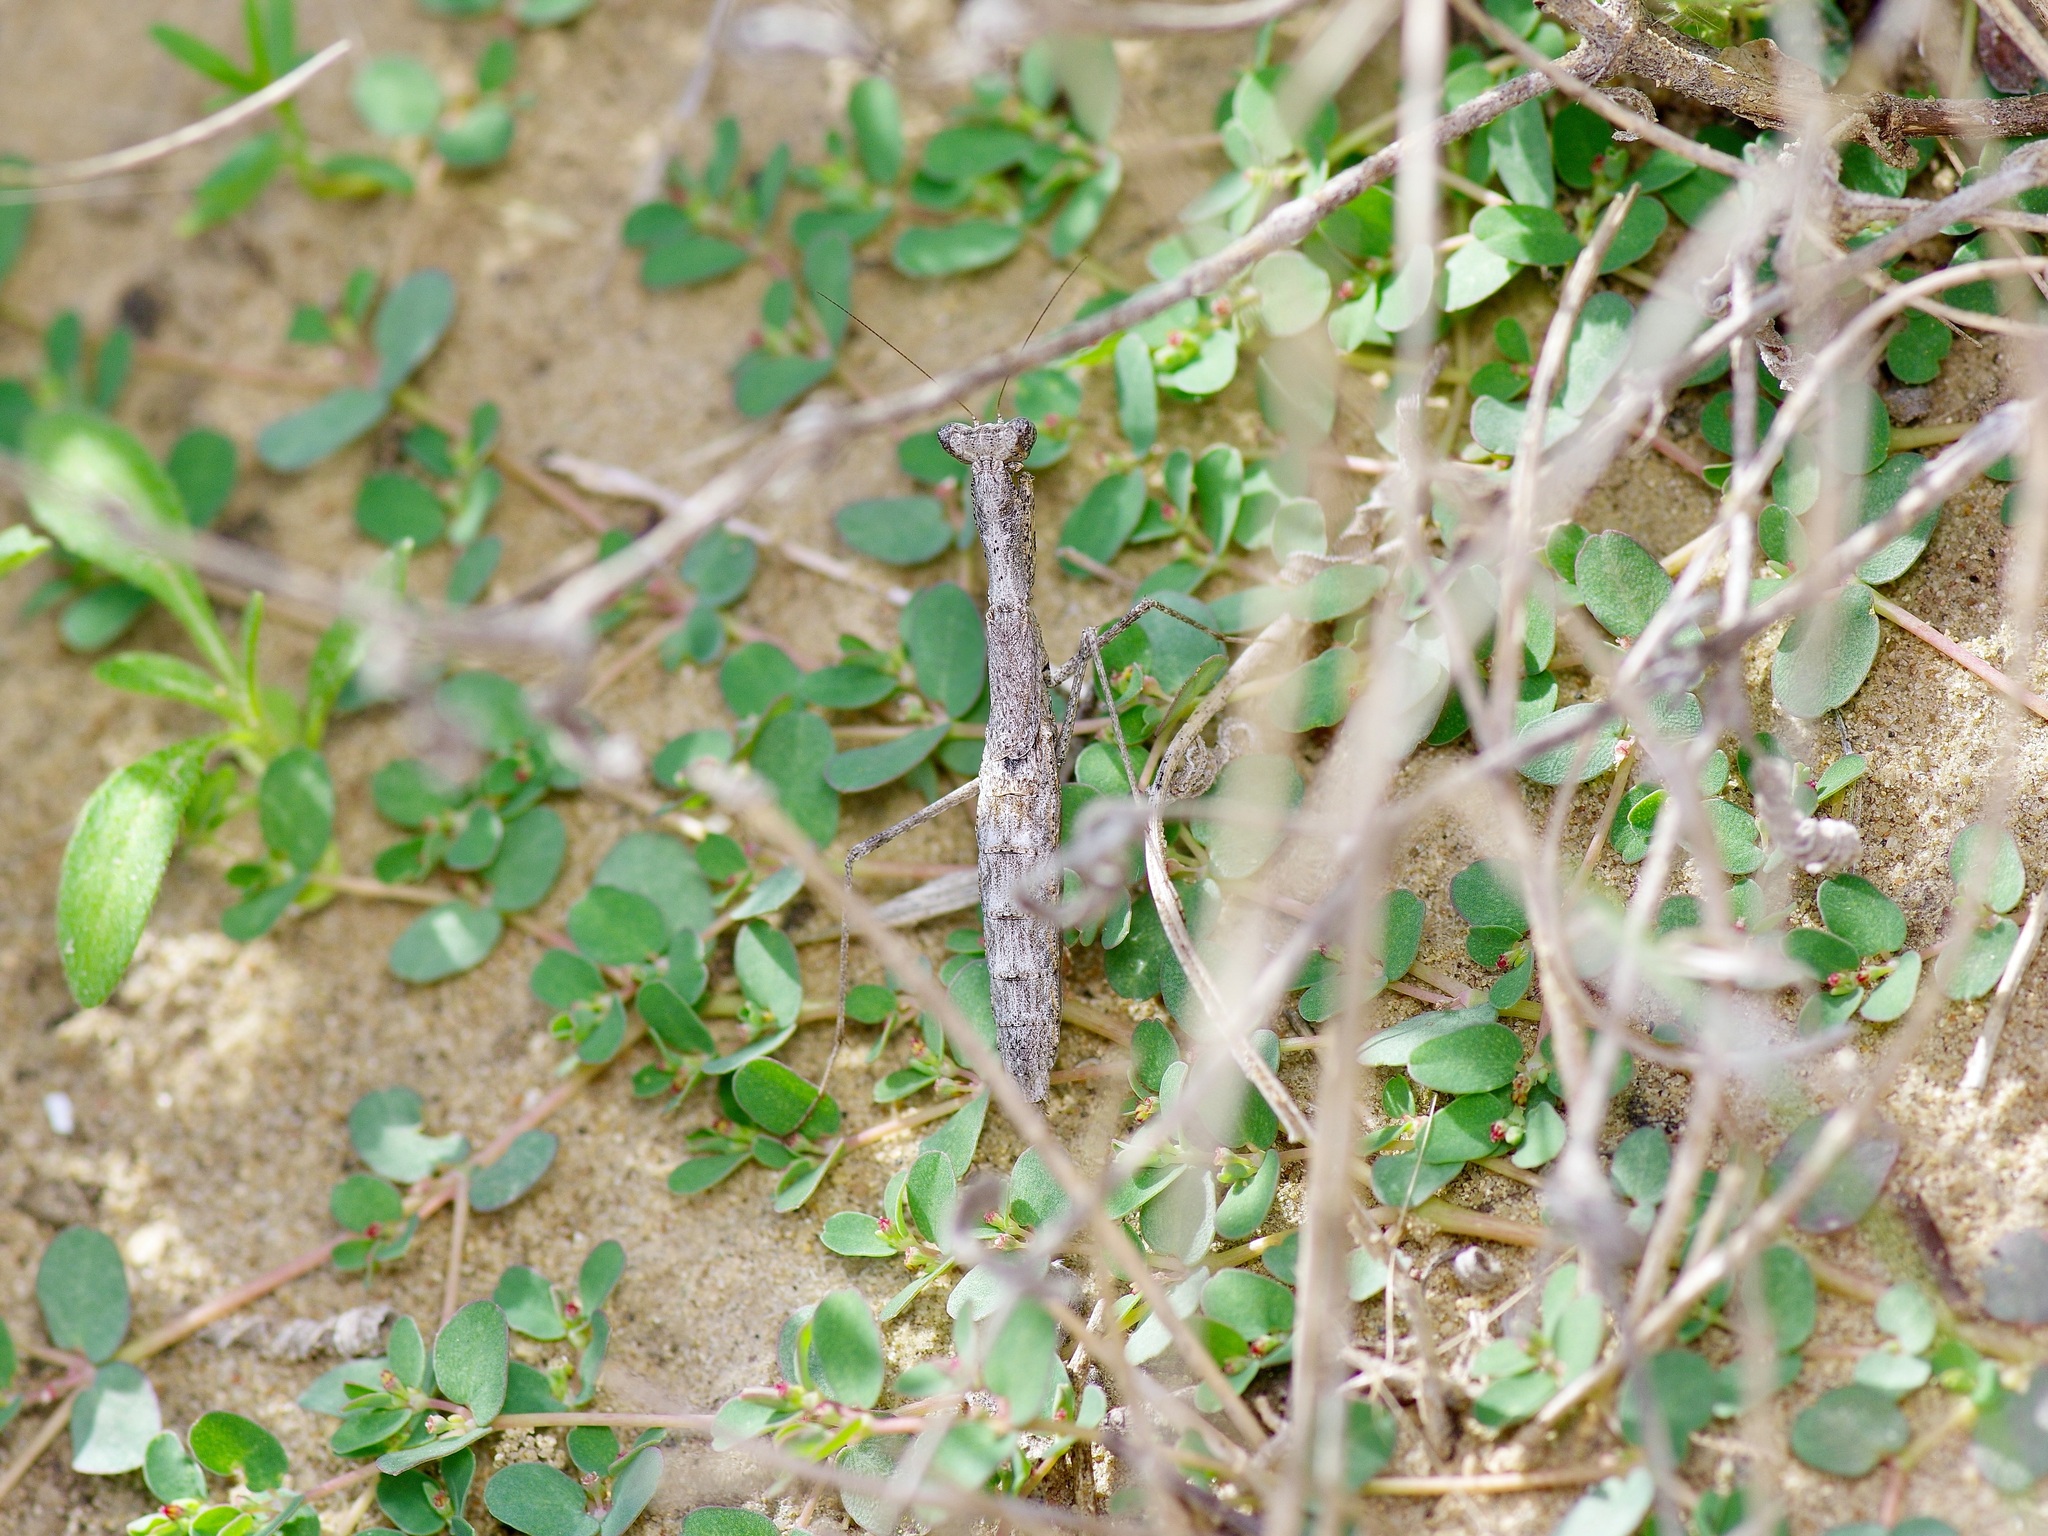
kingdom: Animalia
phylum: Arthropoda
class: Insecta
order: Mantodea
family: Amelidae
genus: Litaneutria
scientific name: Litaneutria minor
